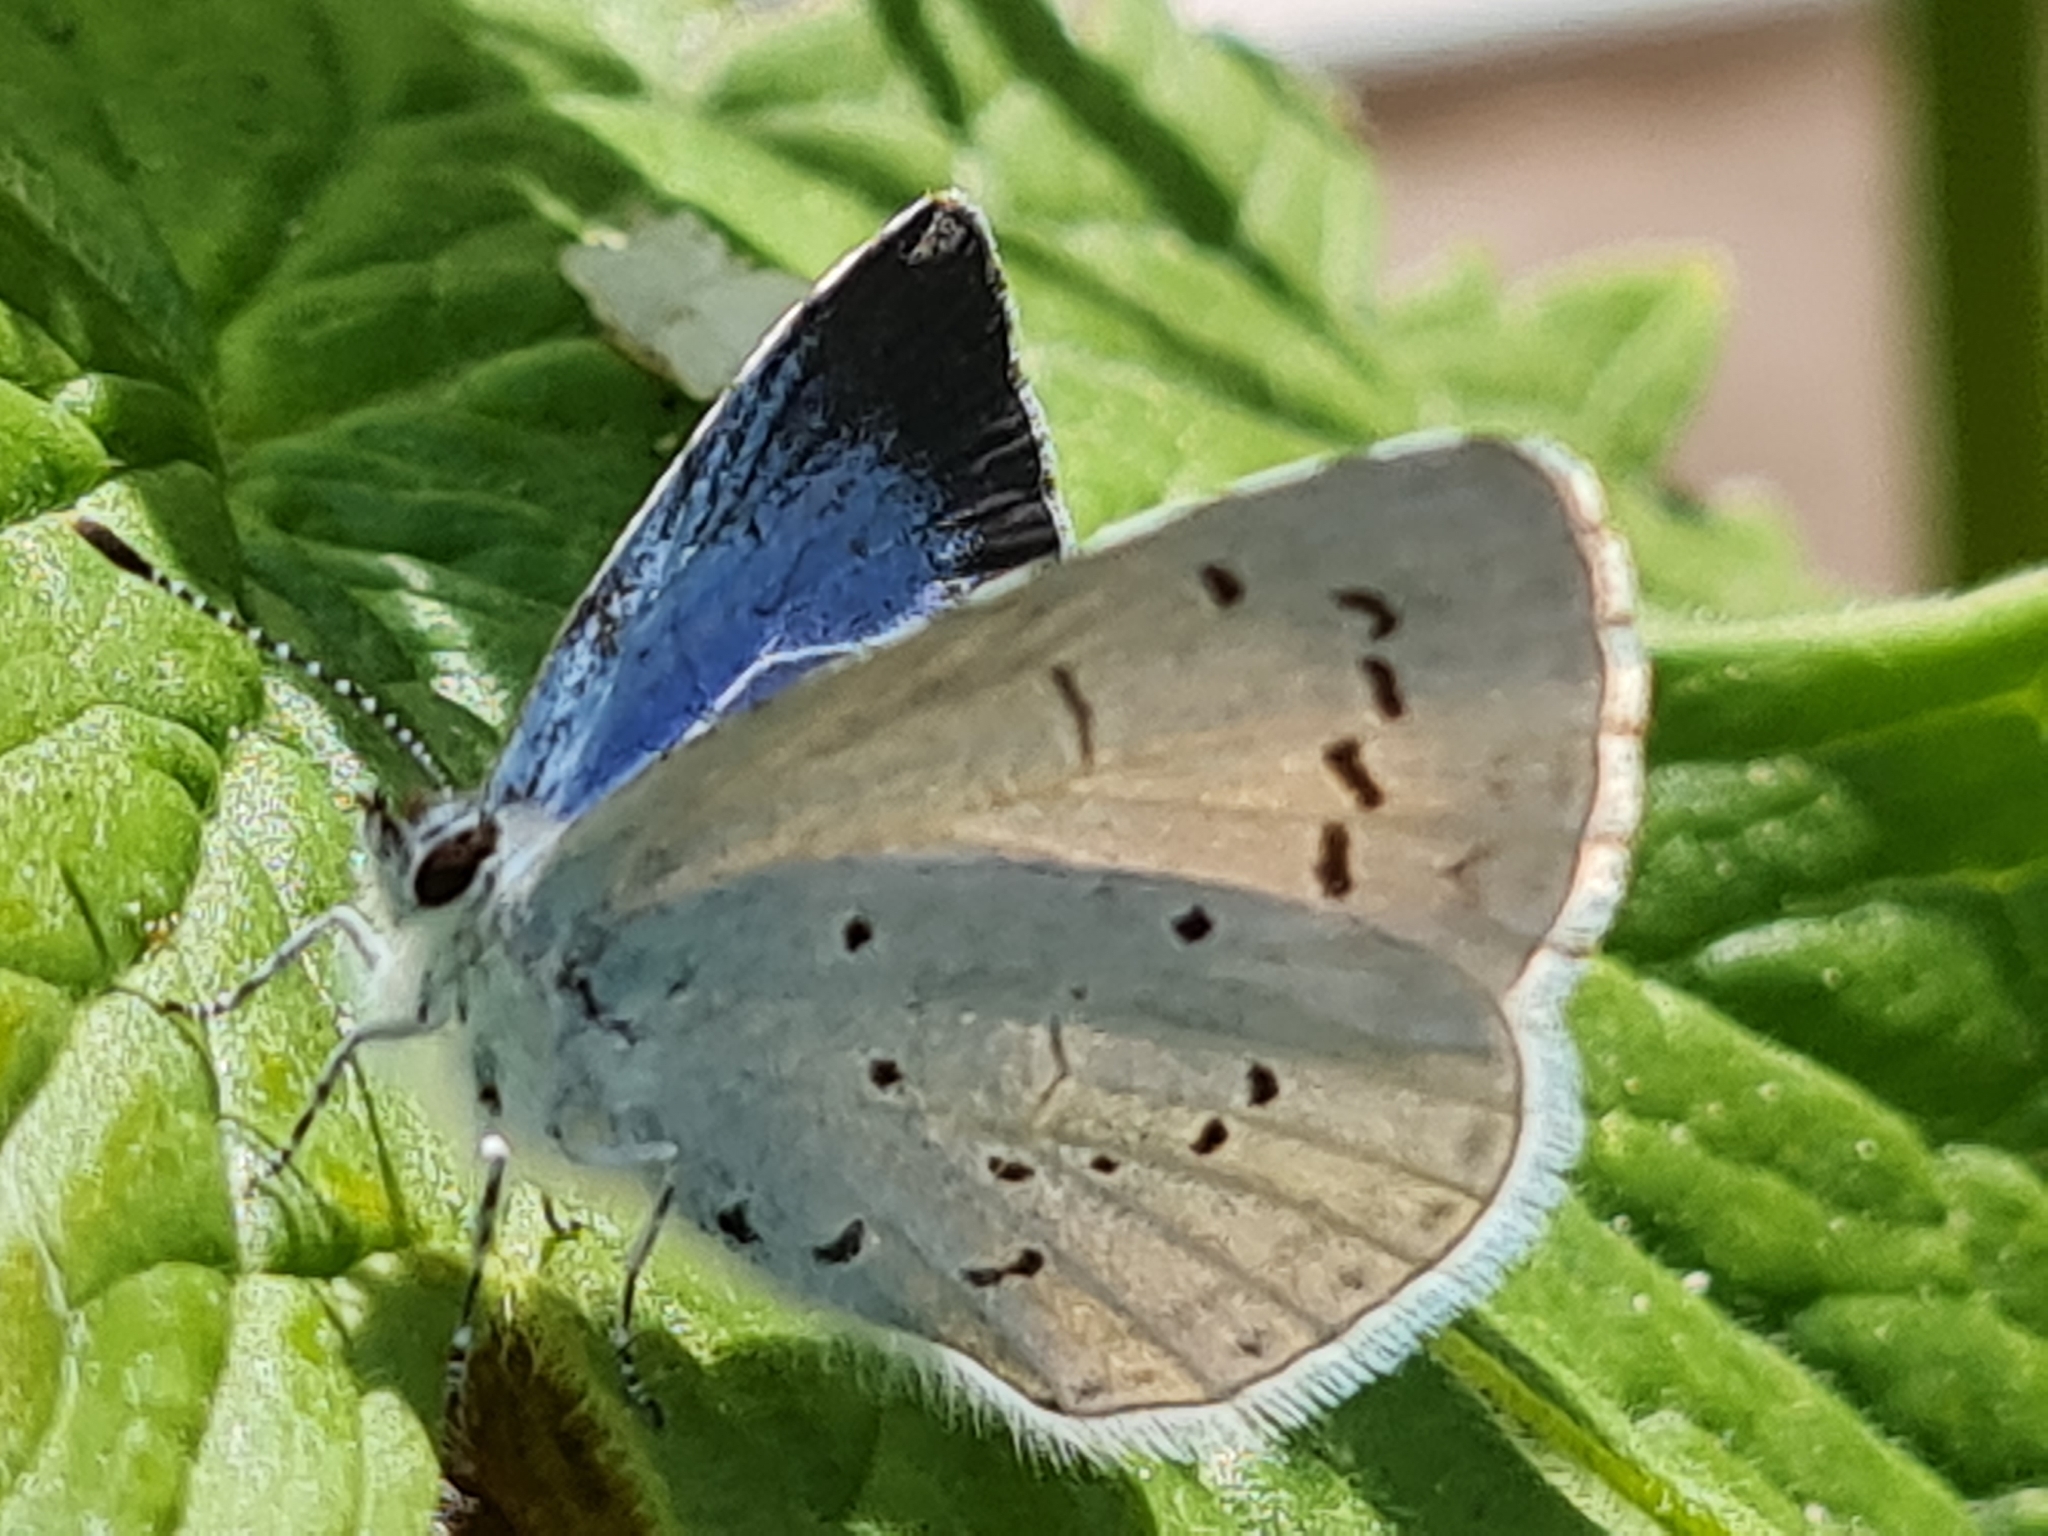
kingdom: Animalia
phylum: Arthropoda
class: Insecta
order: Lepidoptera
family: Lycaenidae
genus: Celastrina
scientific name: Celastrina argiolus
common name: Holly blue
